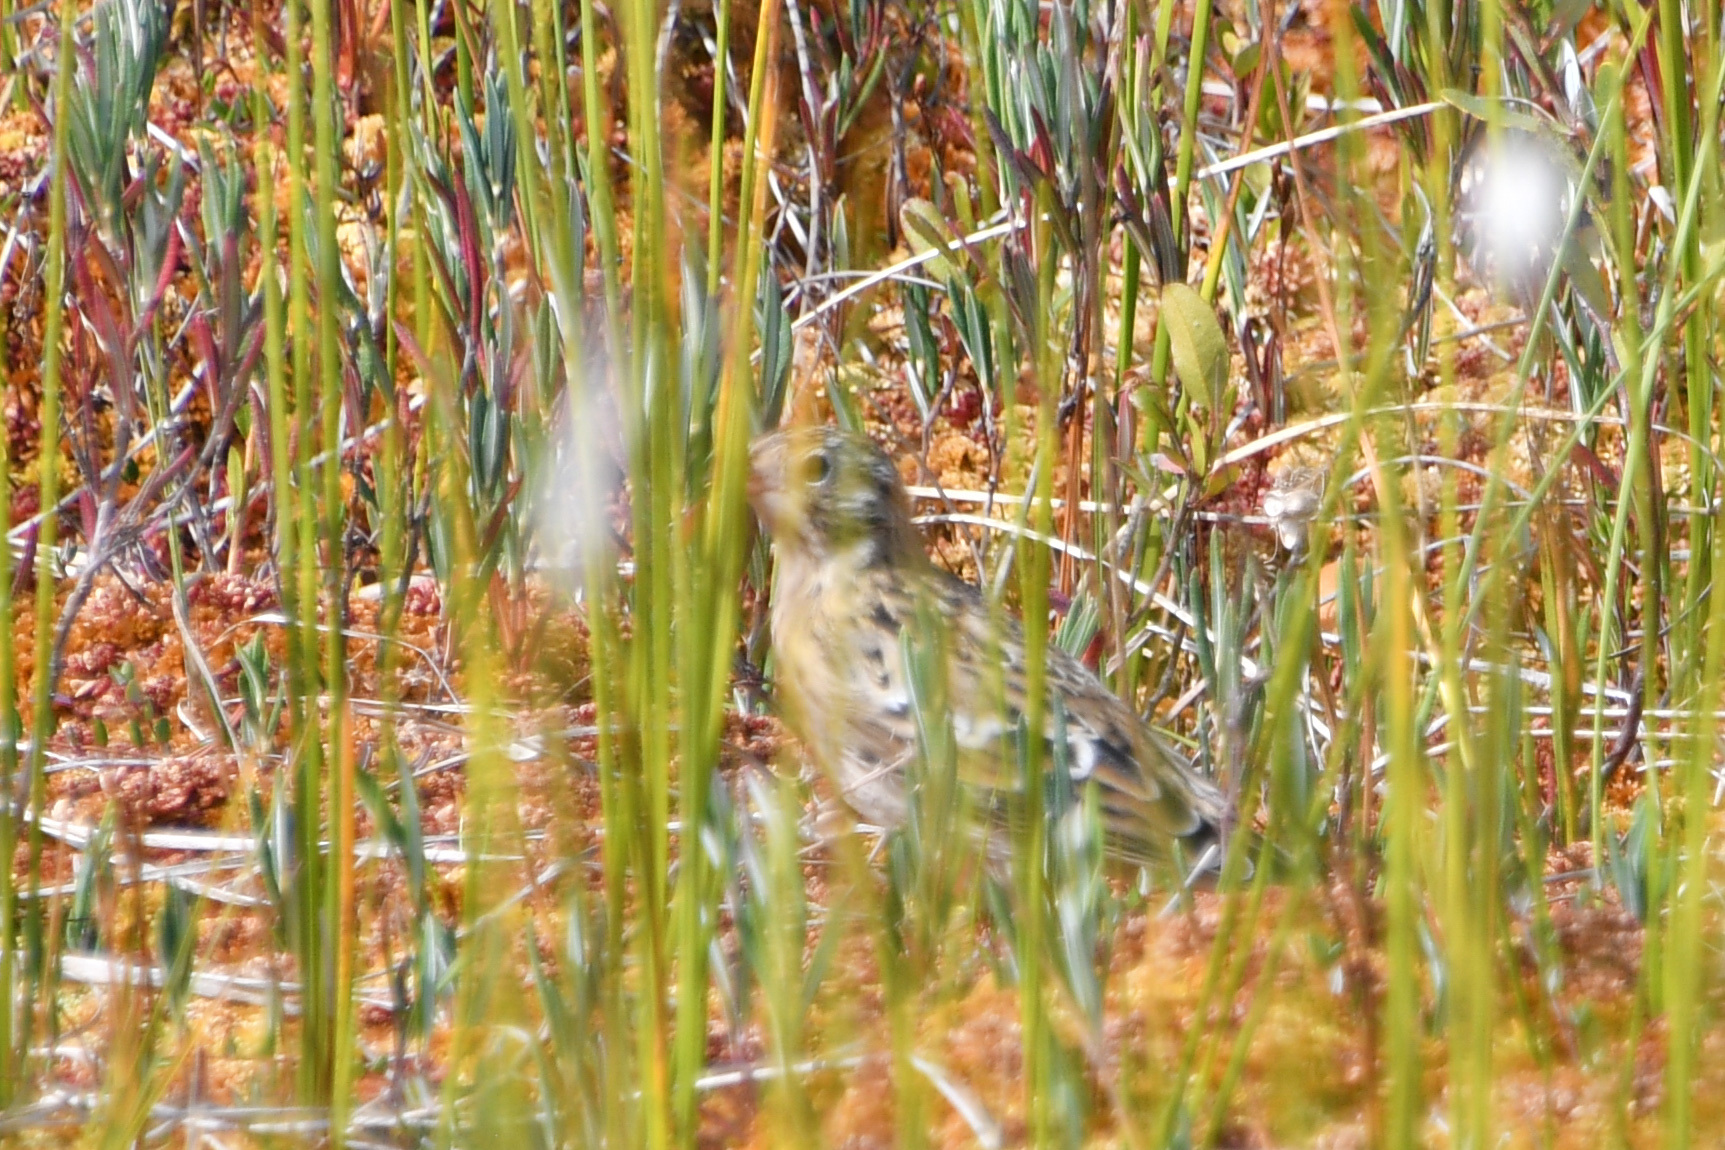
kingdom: Animalia
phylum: Chordata
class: Aves
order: Passeriformes
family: Calcariidae
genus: Calcarius
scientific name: Calcarius pictus
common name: Smith's longspur
